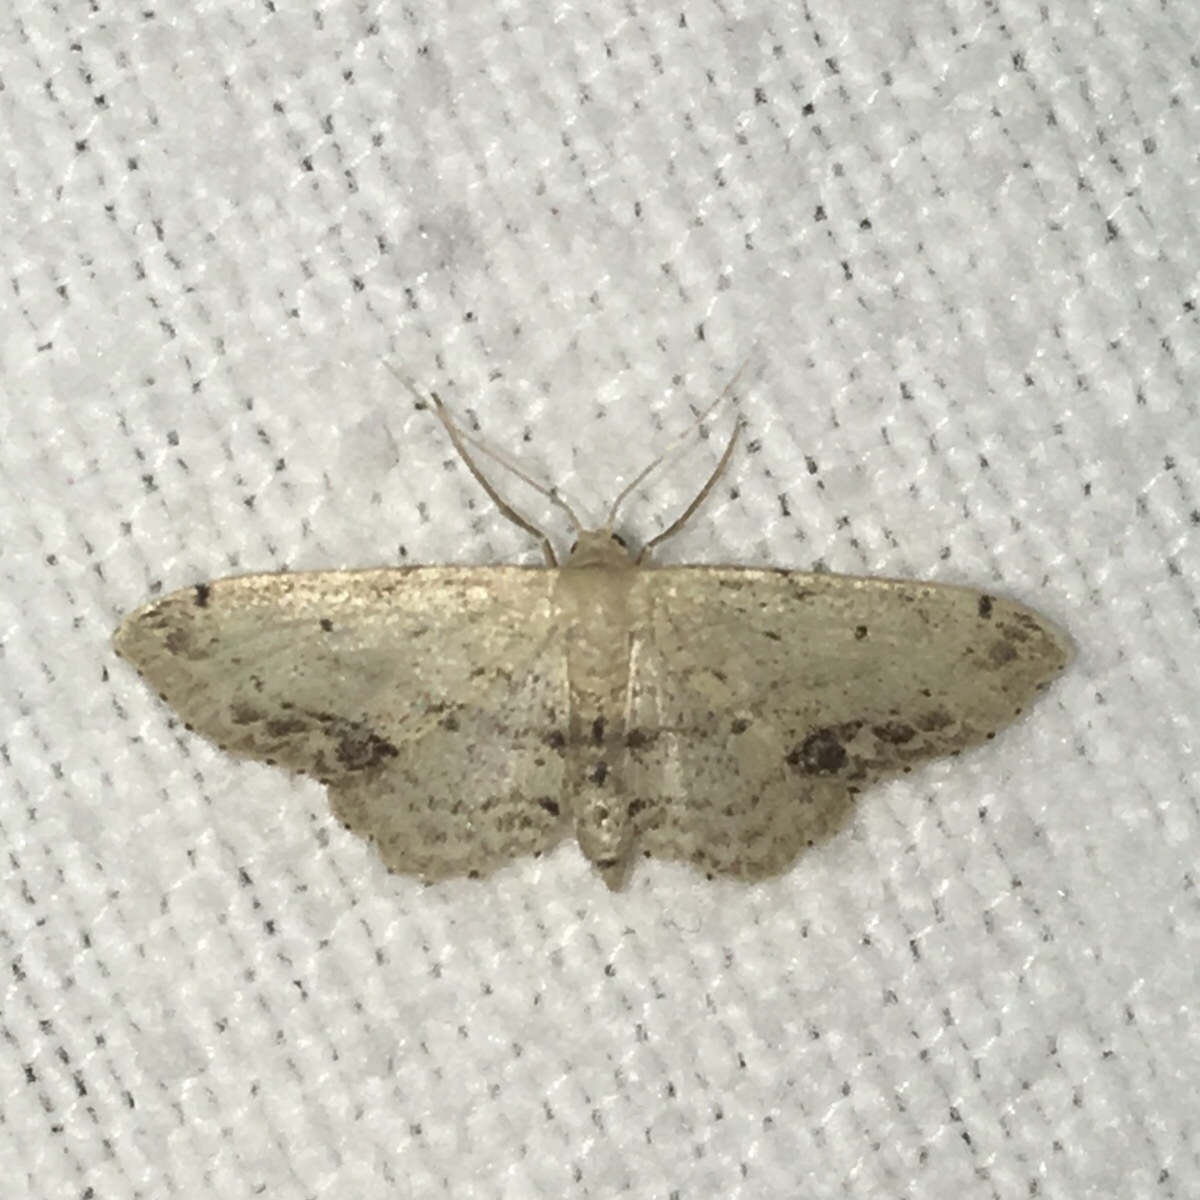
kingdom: Animalia
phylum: Arthropoda
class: Insecta
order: Lepidoptera
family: Geometridae
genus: Idaea
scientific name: Idaea dimidiata
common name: Single-dotted wave
